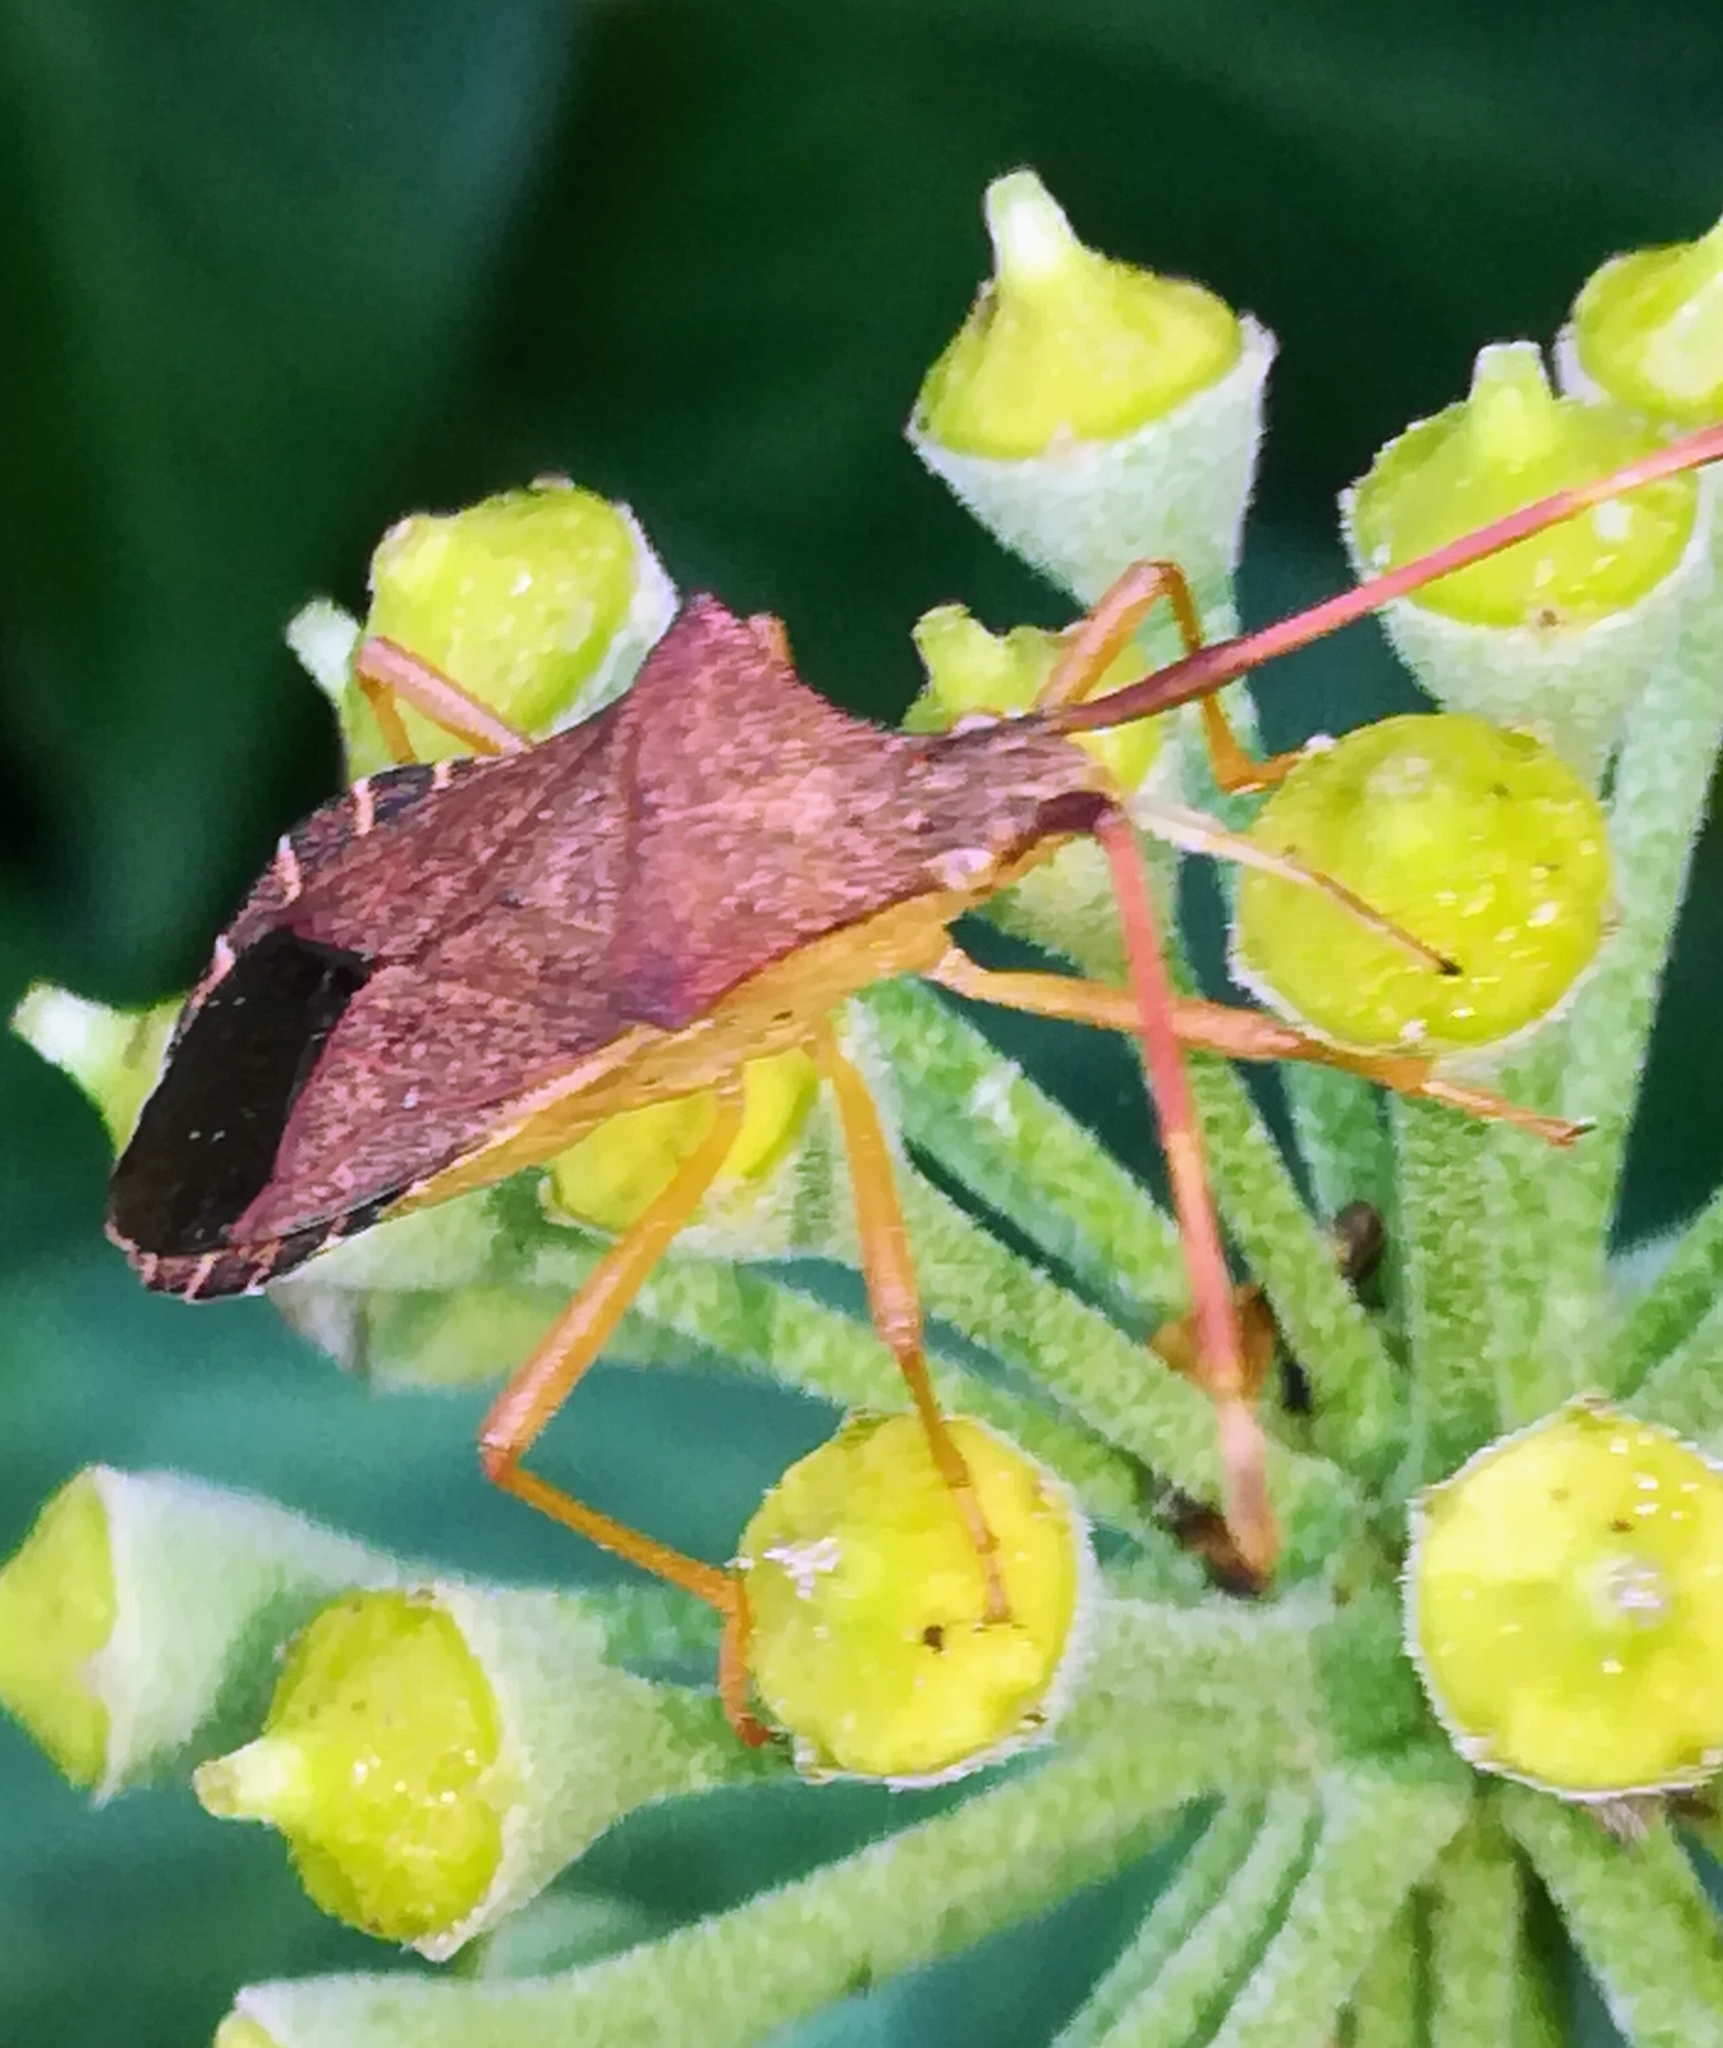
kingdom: Animalia
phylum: Arthropoda
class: Insecta
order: Hemiptera
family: Coreidae
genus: Gonocerus
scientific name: Gonocerus acuteangulatus
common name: Box bug
